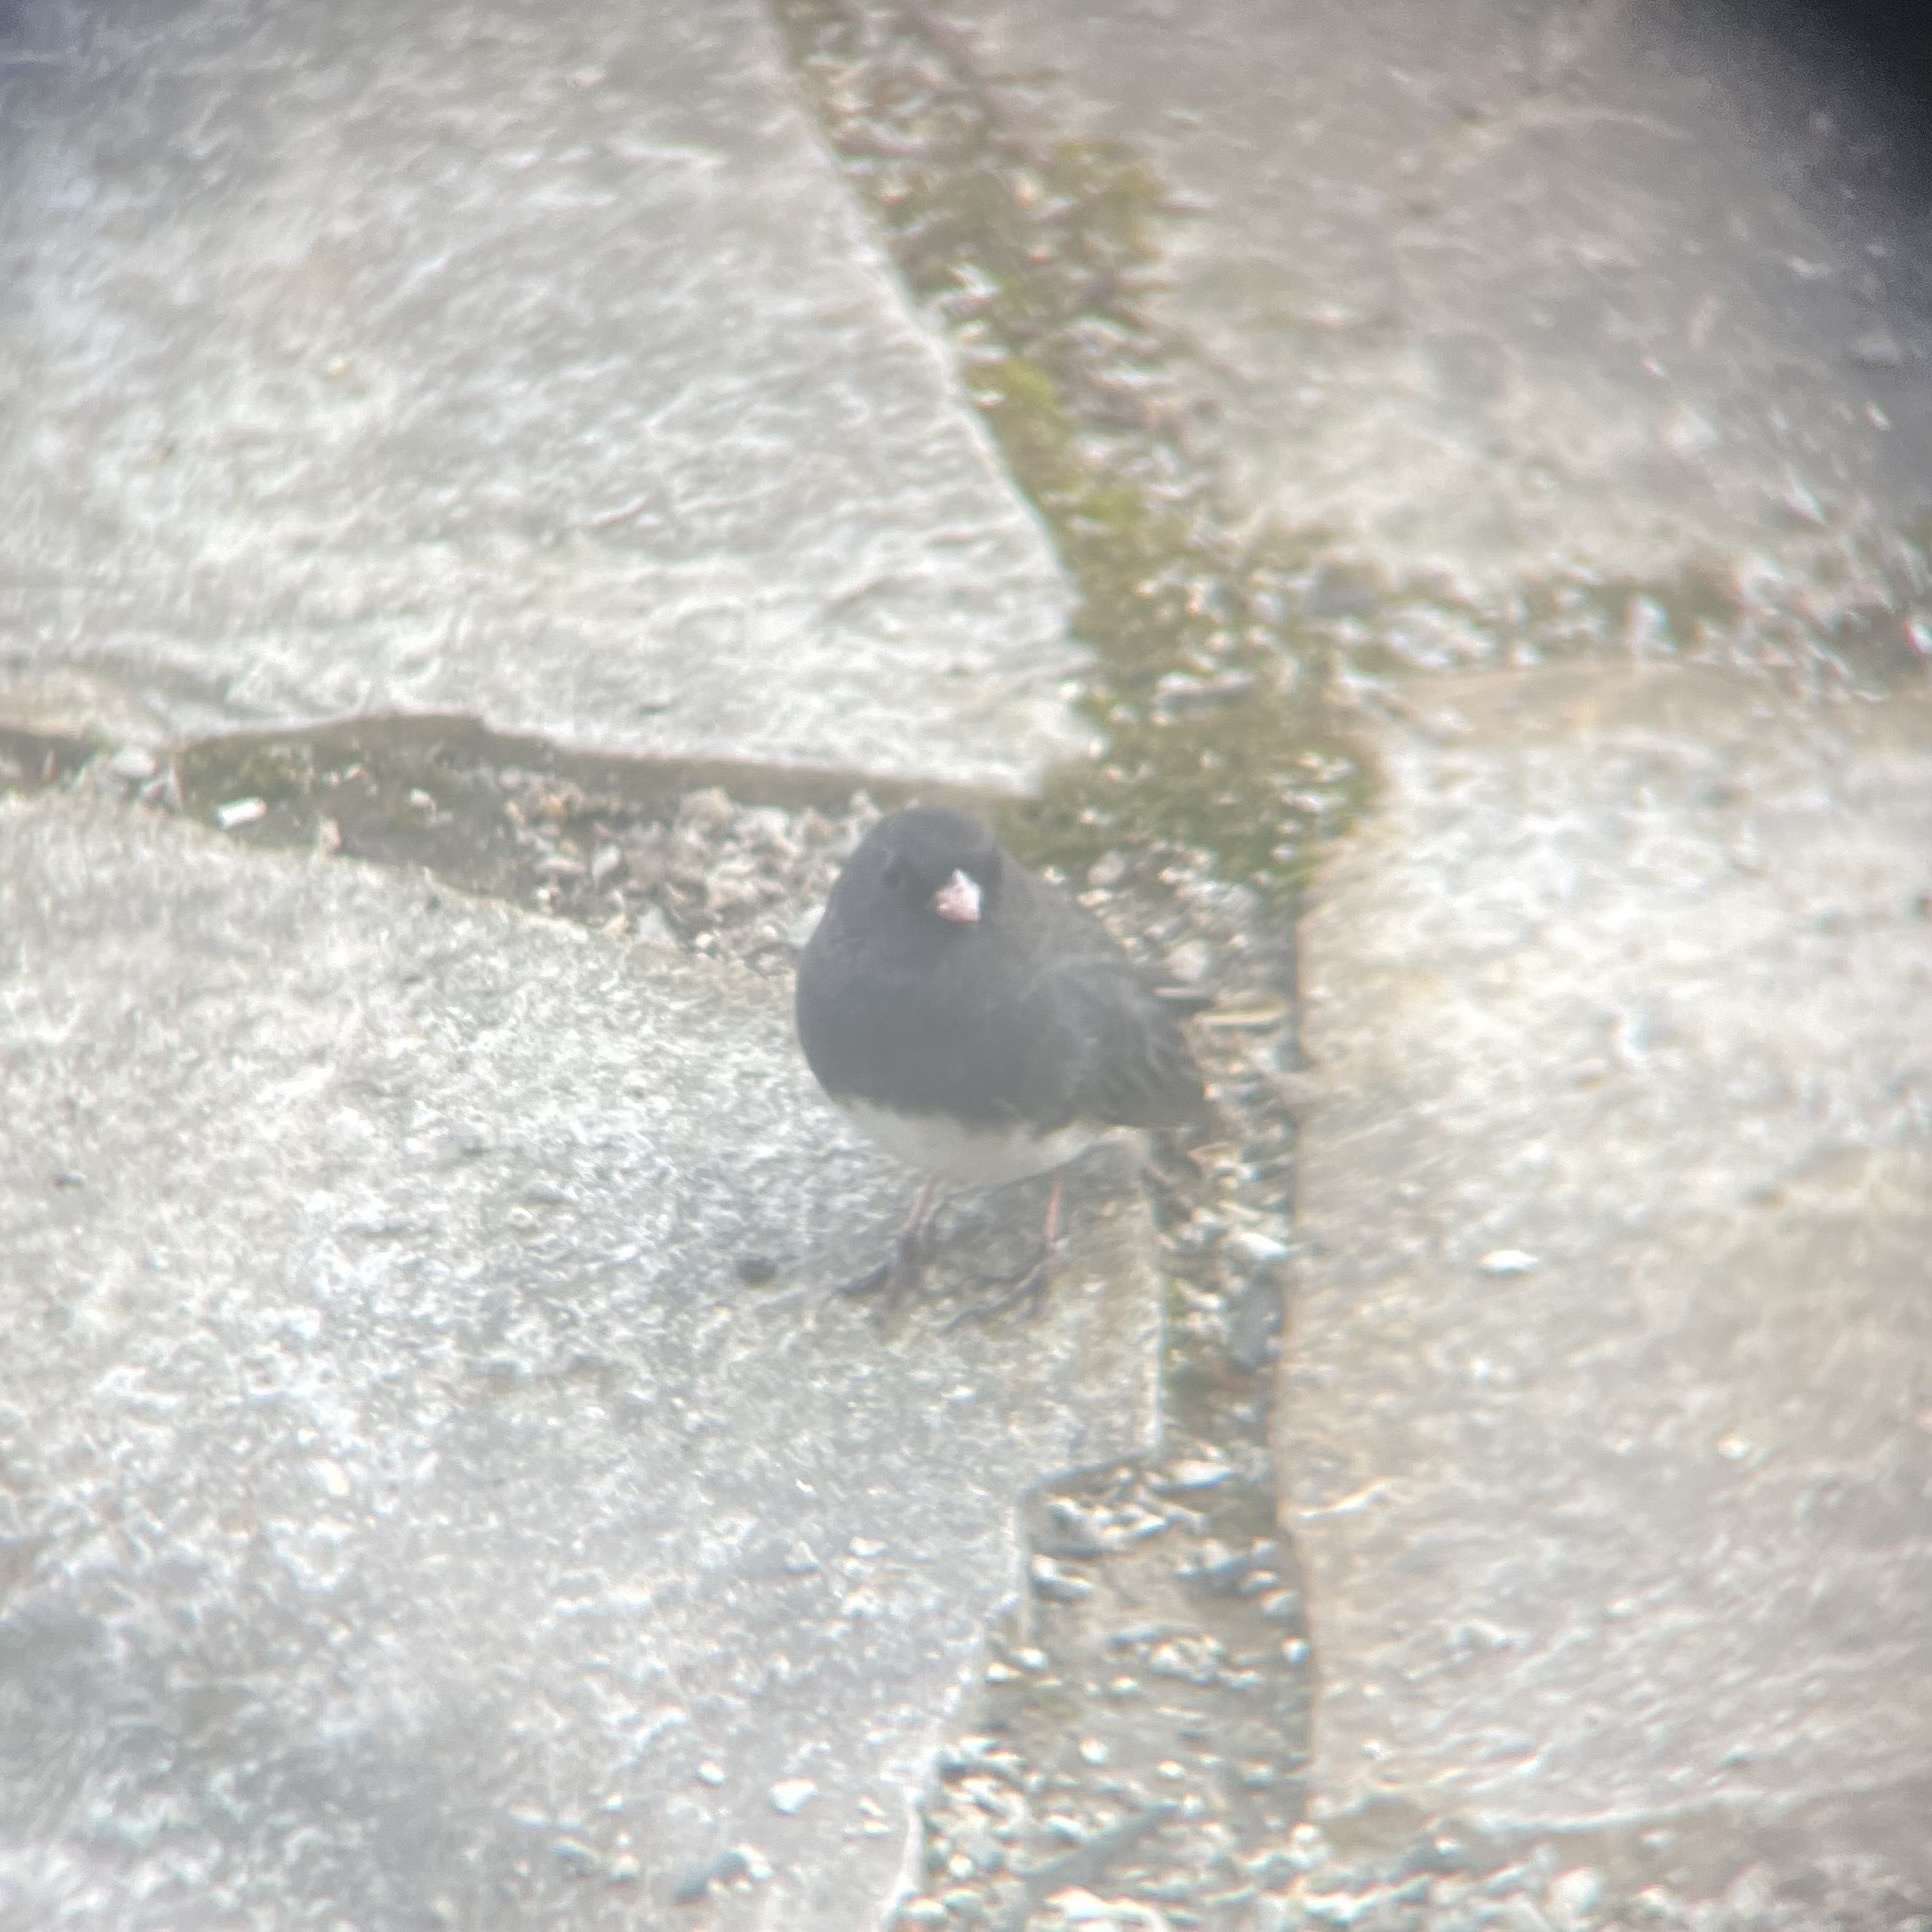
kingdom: Animalia
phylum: Chordata
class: Aves
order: Passeriformes
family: Passerellidae
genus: Junco
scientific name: Junco hyemalis
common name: Dark-eyed junco
